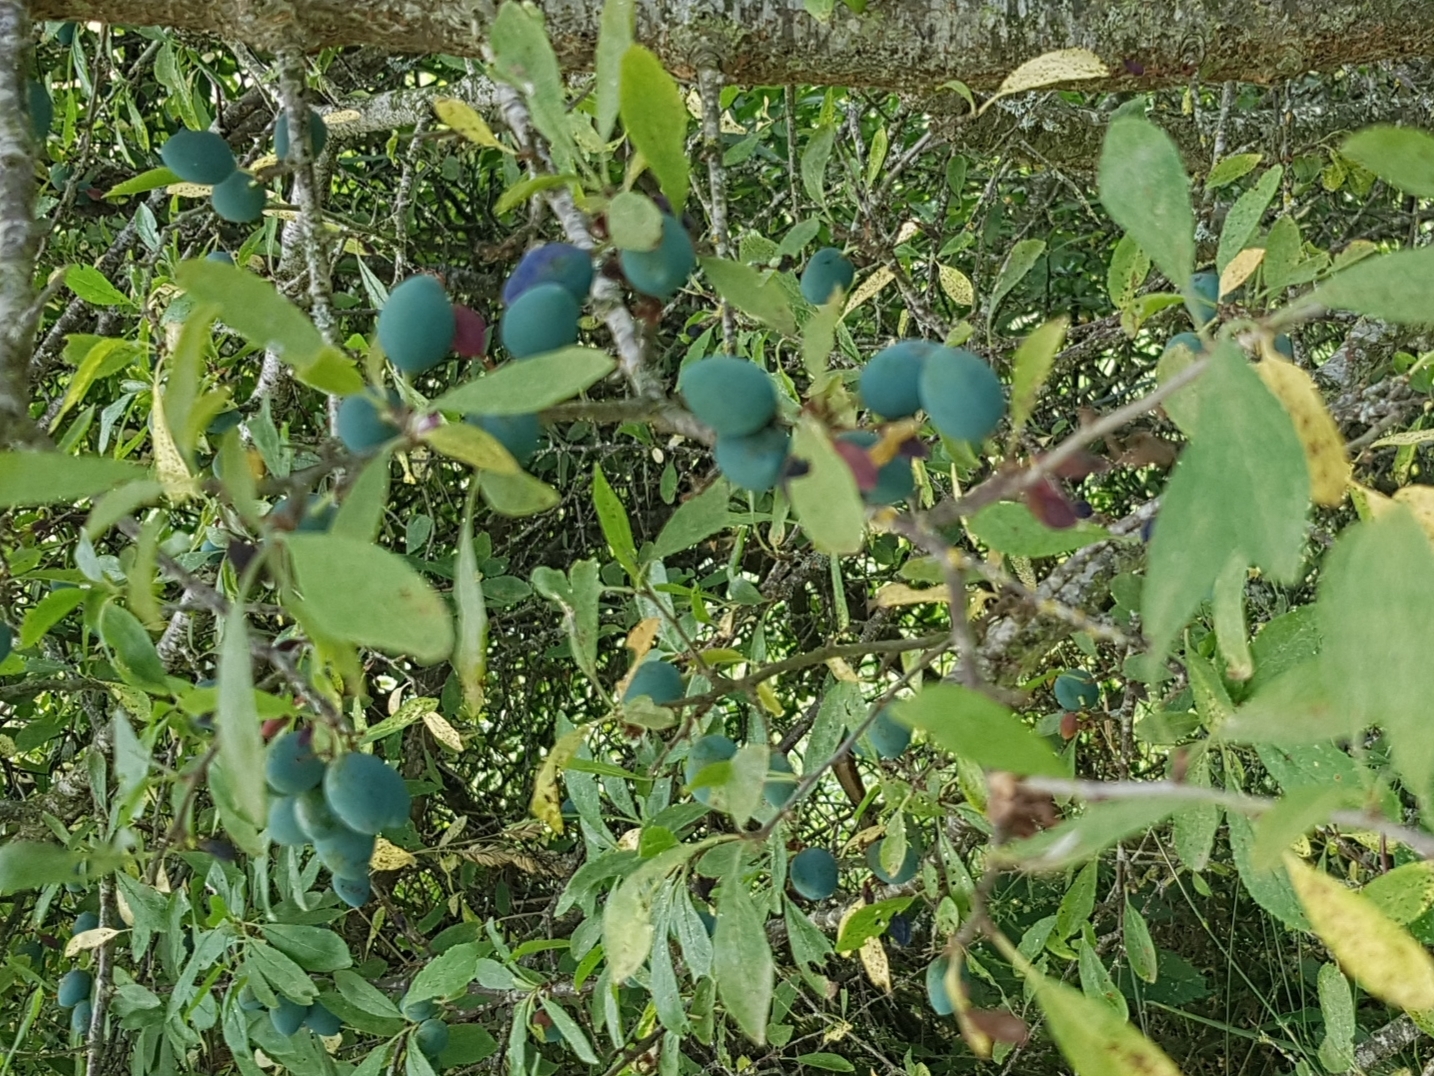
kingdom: Plantae
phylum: Tracheophyta
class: Magnoliopsida
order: Rosales
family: Rosaceae
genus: Prunus
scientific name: Prunus spinosa
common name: Blackthorn
